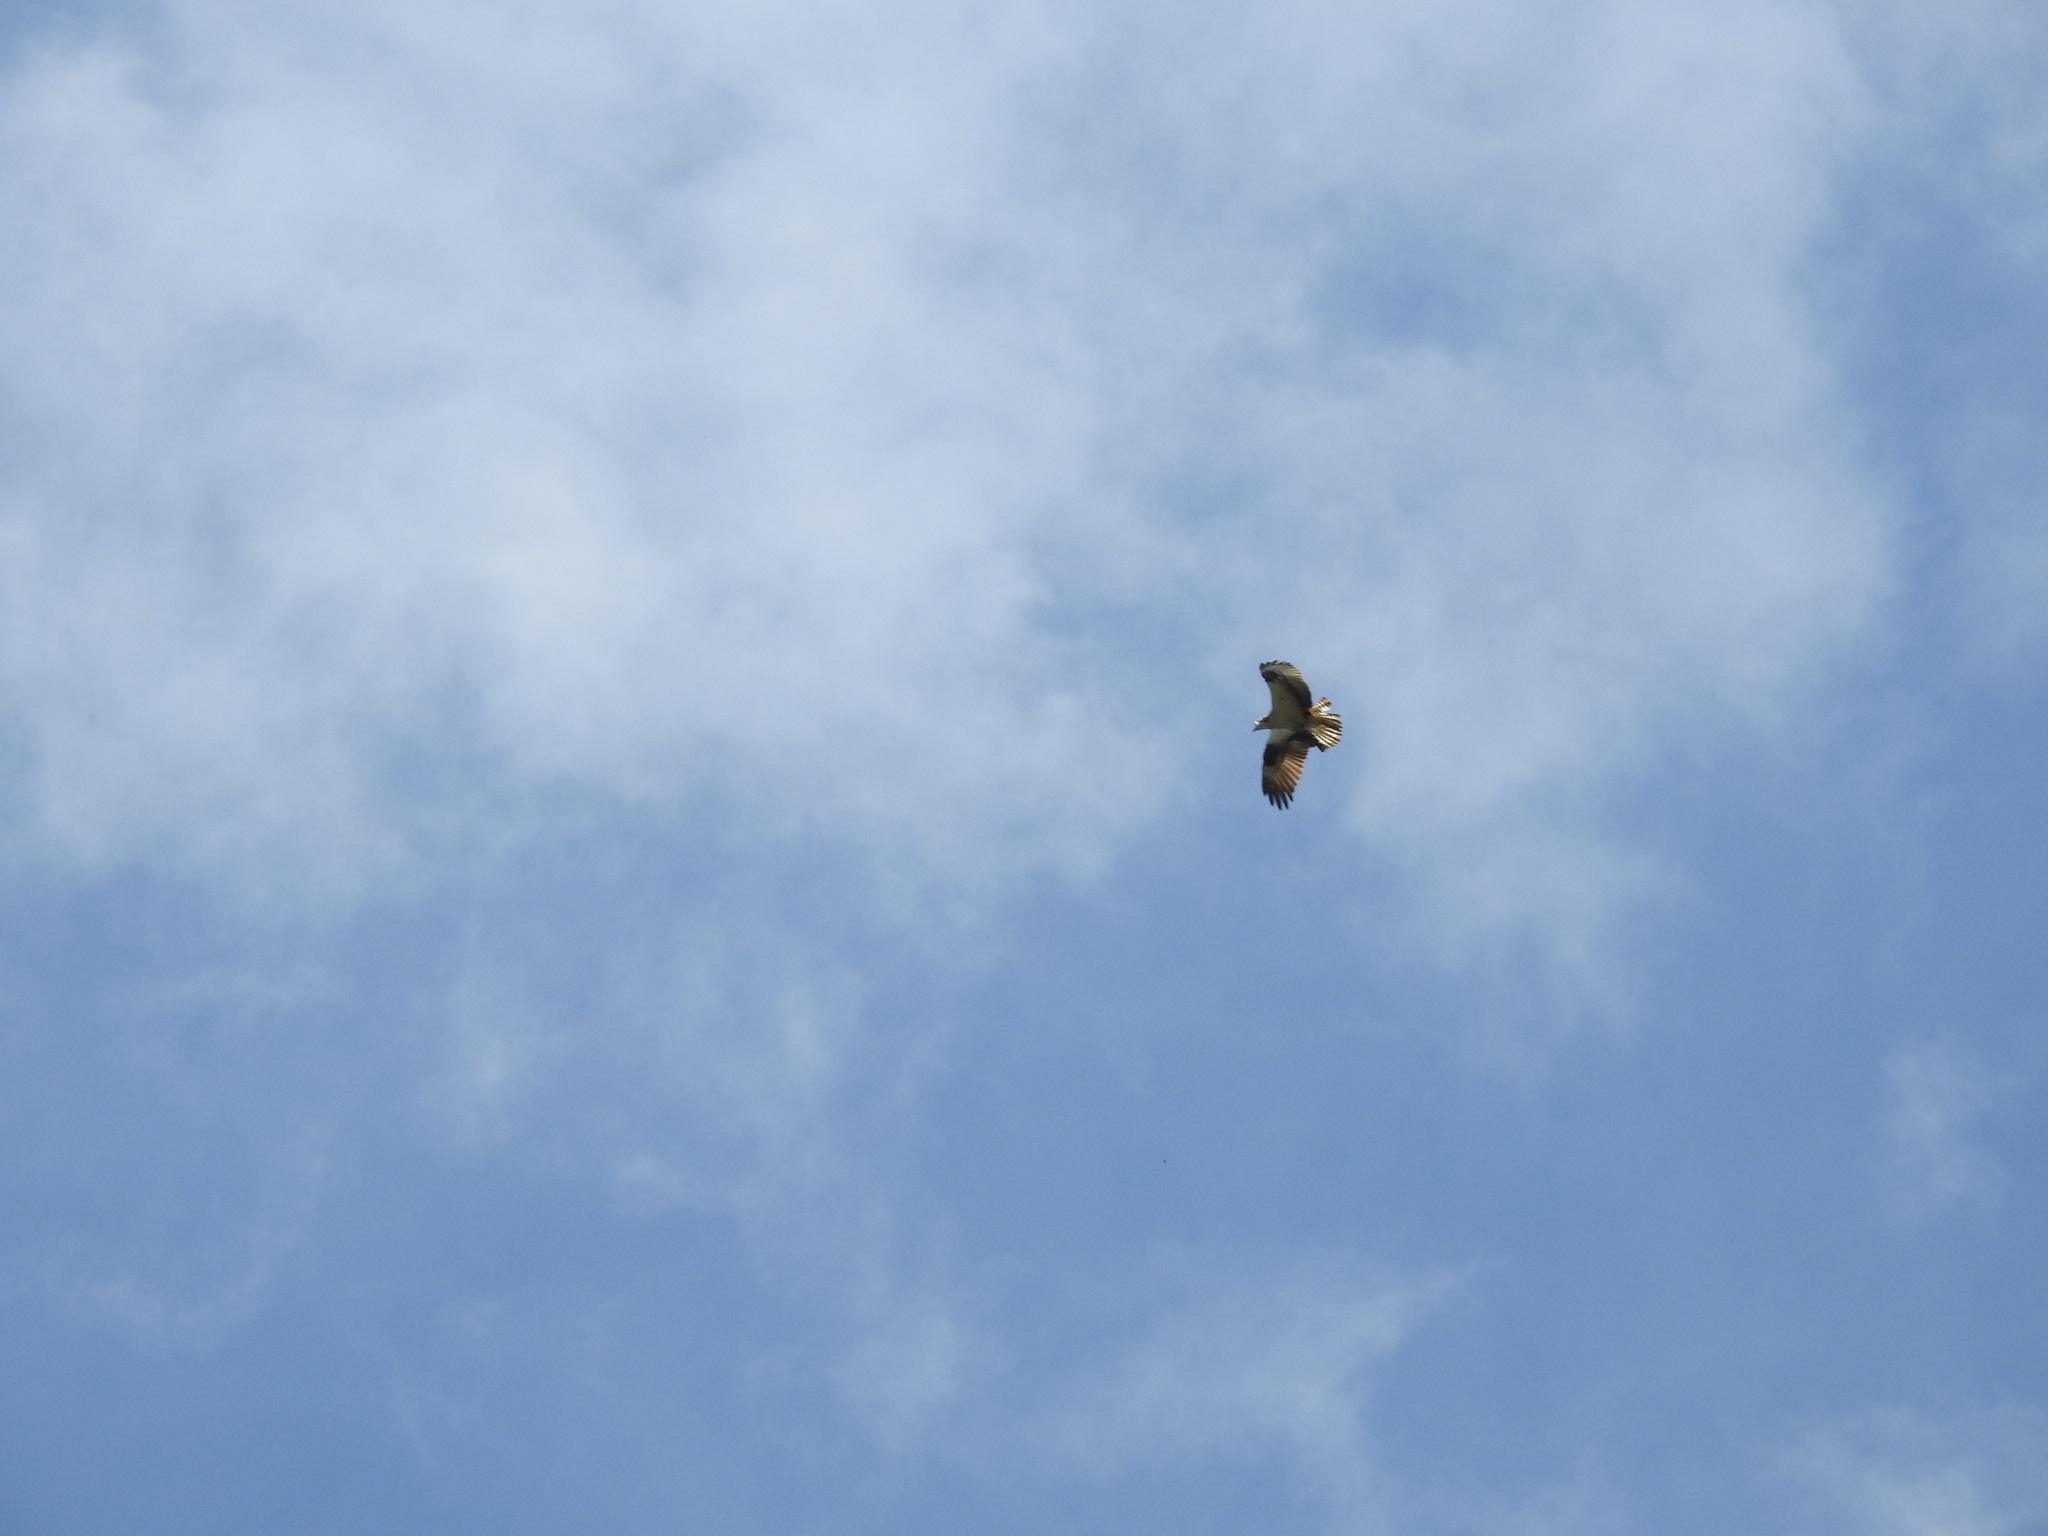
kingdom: Animalia
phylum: Chordata
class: Aves
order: Accipitriformes
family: Pandionidae
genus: Pandion
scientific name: Pandion haliaetus
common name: Osprey
